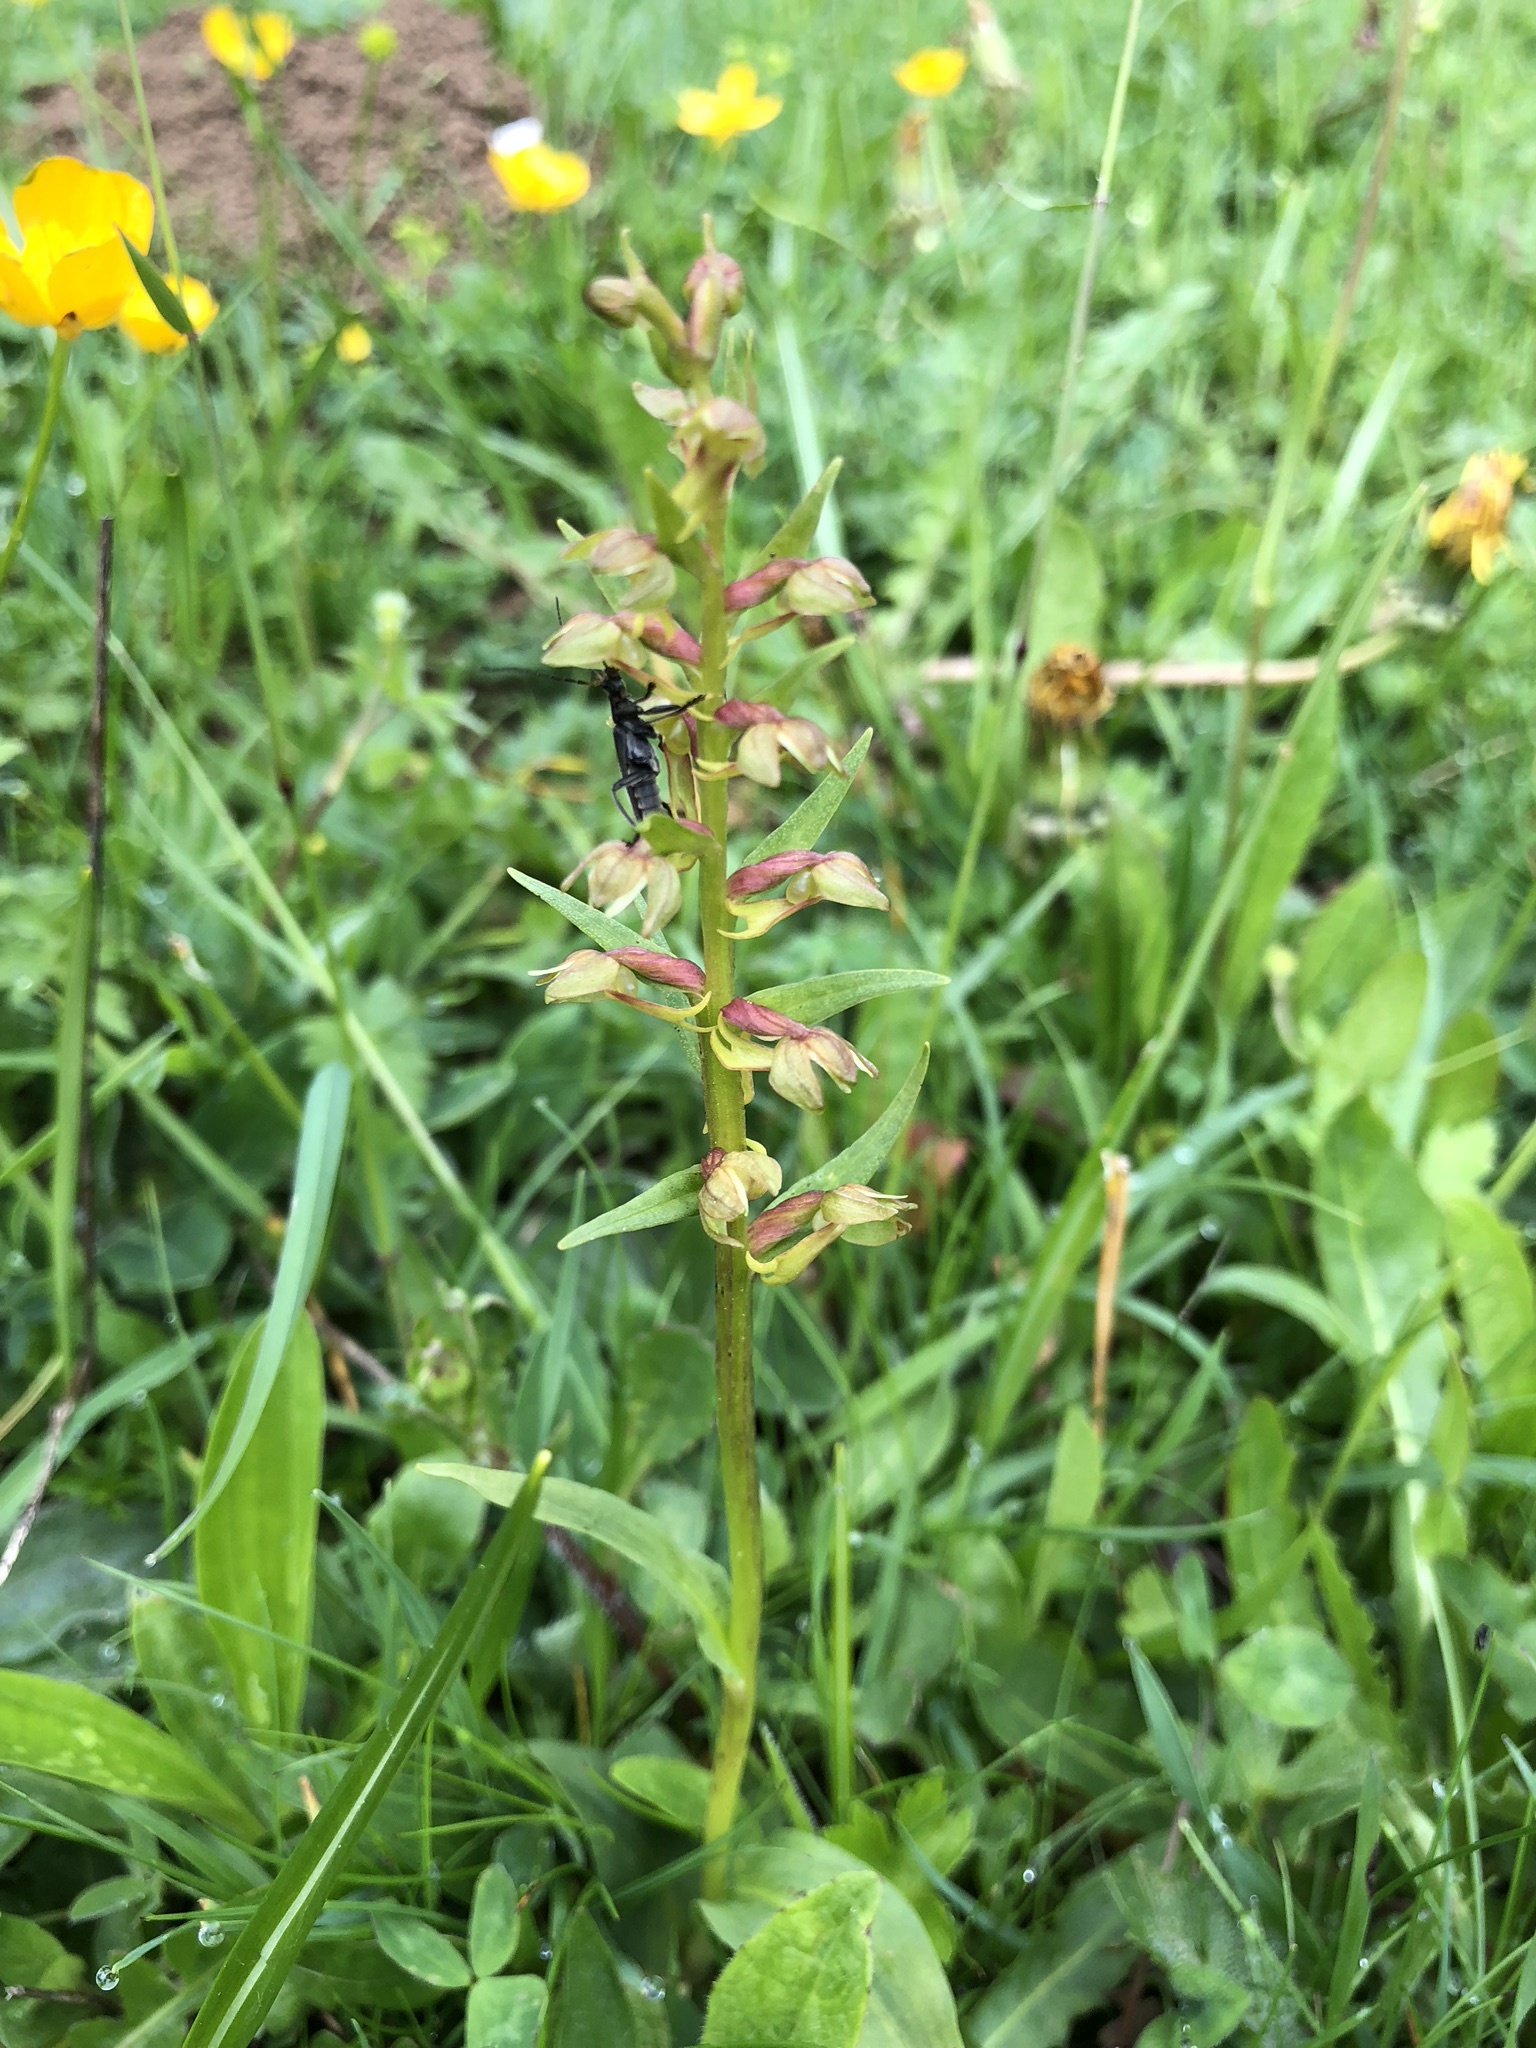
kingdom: Plantae
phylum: Tracheophyta
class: Liliopsida
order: Asparagales
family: Orchidaceae
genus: Dactylorhiza
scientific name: Dactylorhiza viridis
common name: Longbract frog orchid
